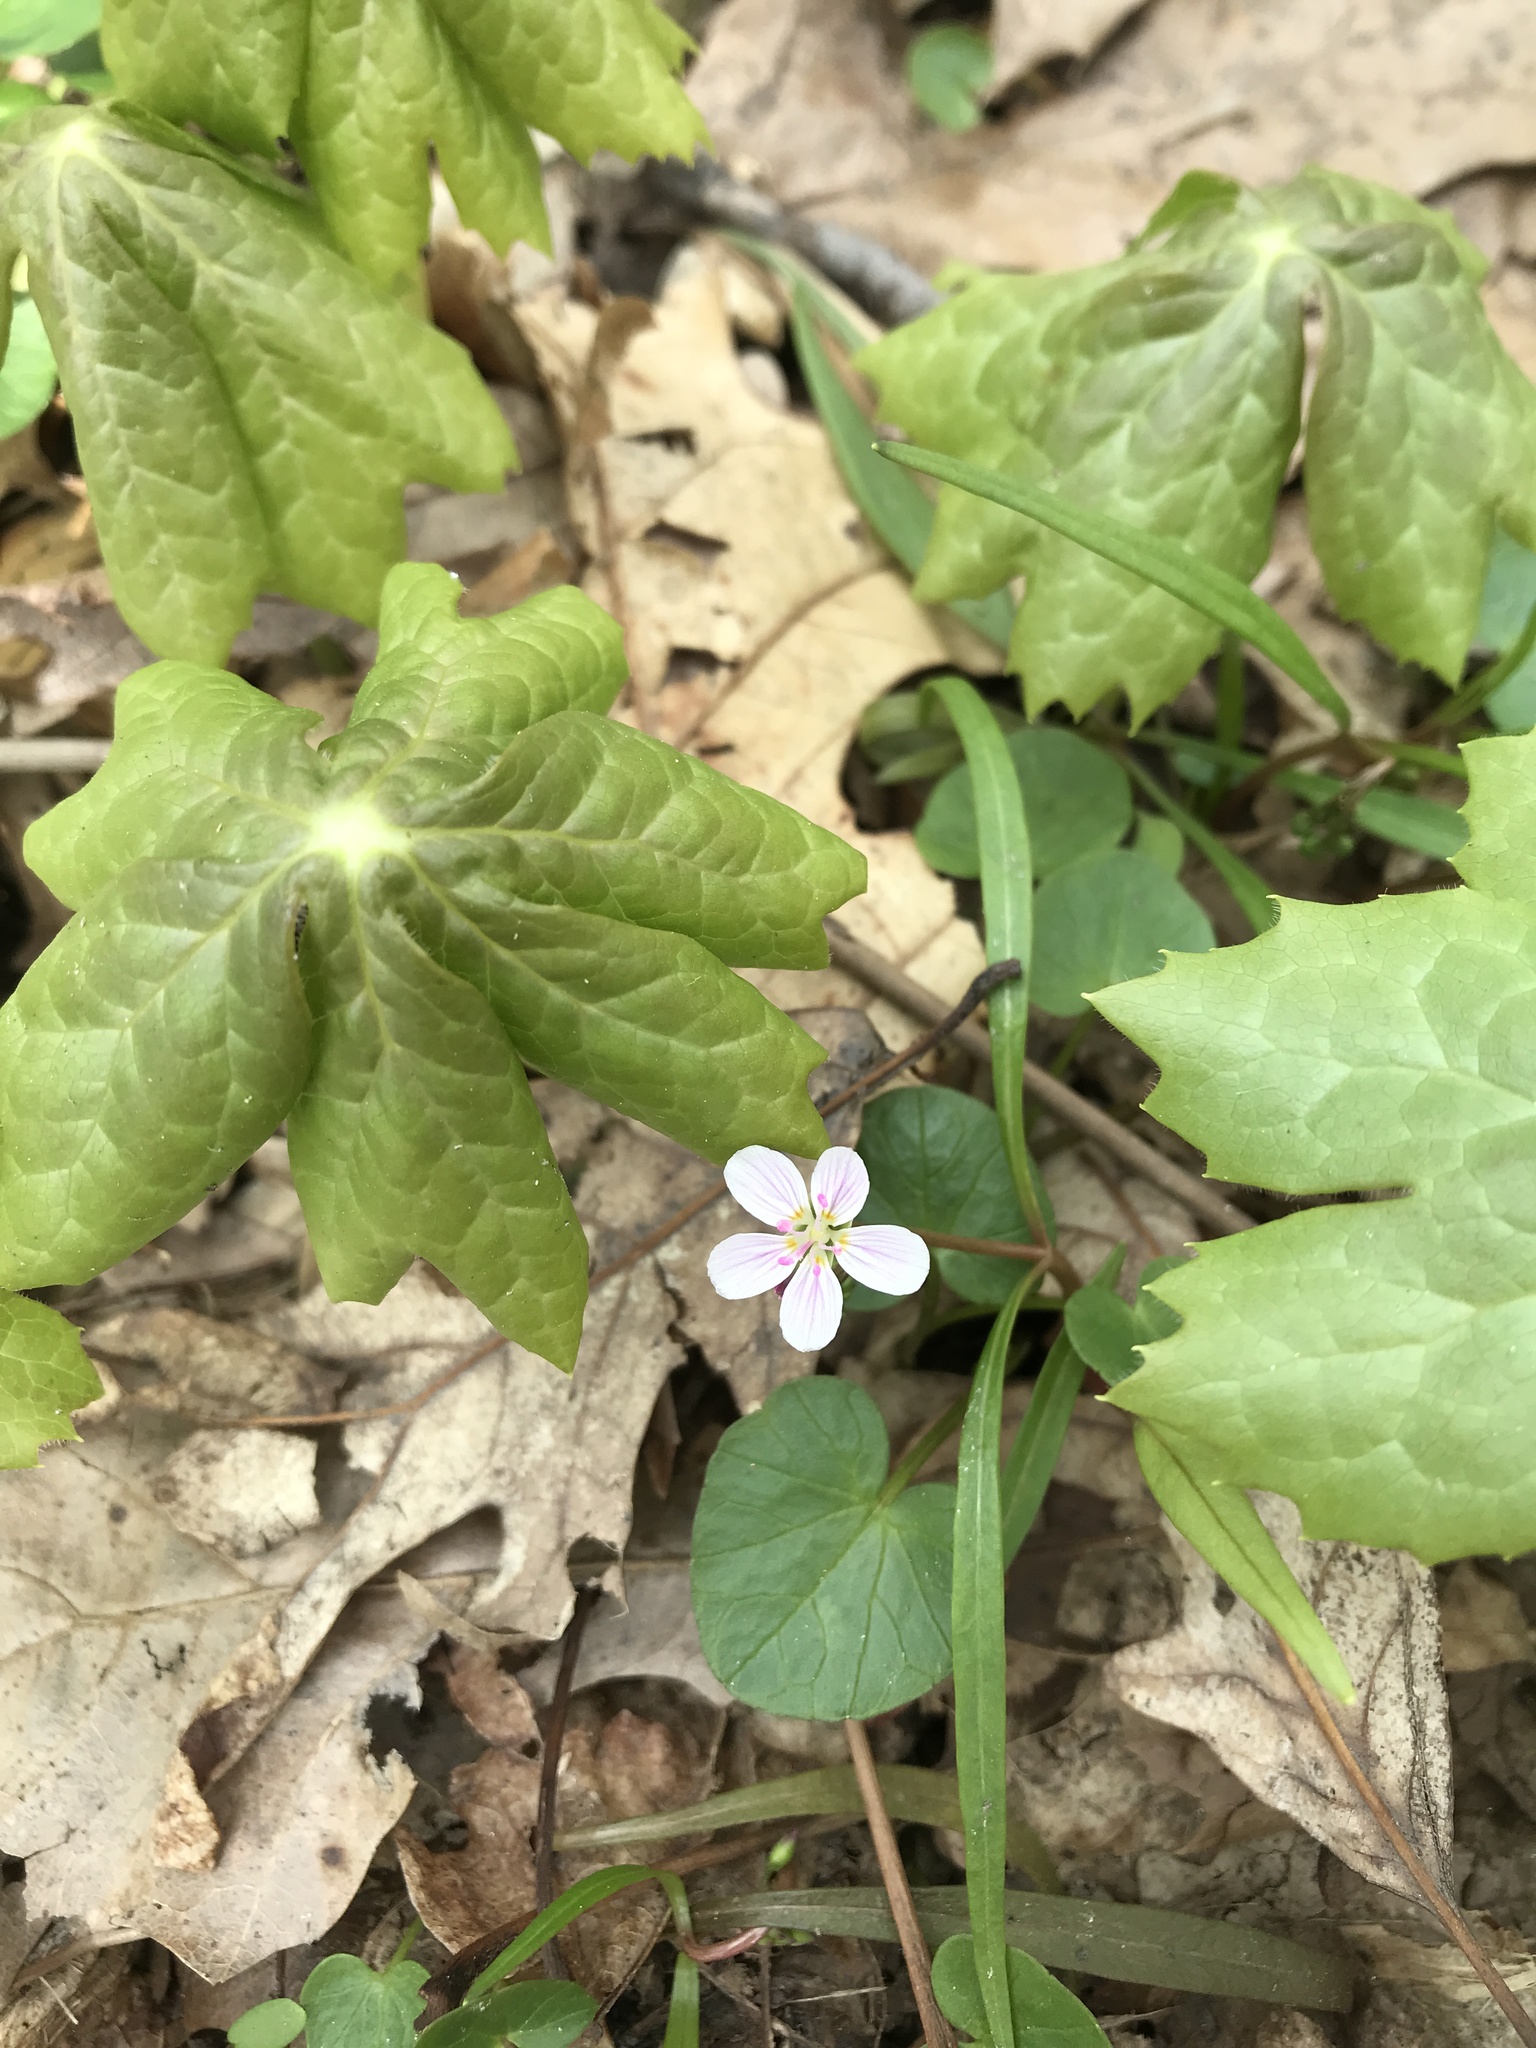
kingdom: Plantae
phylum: Tracheophyta
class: Magnoliopsida
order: Caryophyllales
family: Montiaceae
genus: Claytonia
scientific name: Claytonia virginica
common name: Virginia springbeauty
